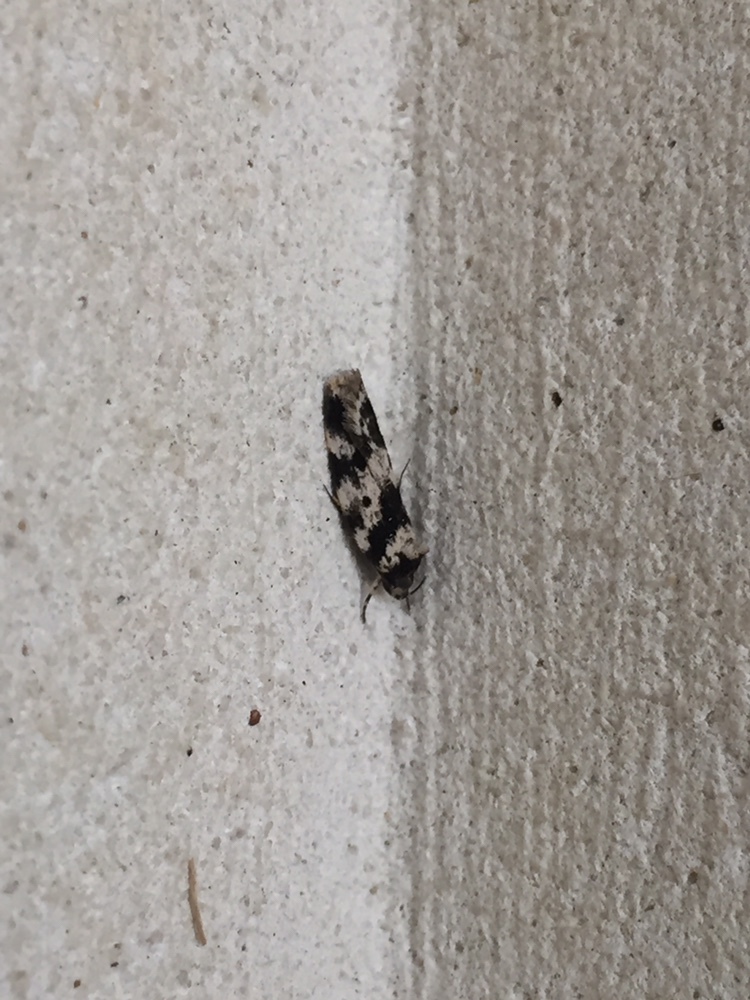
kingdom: Animalia
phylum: Arthropoda
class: Insecta
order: Lepidoptera
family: Oecophoridae
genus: Barea
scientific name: Barea confusella
